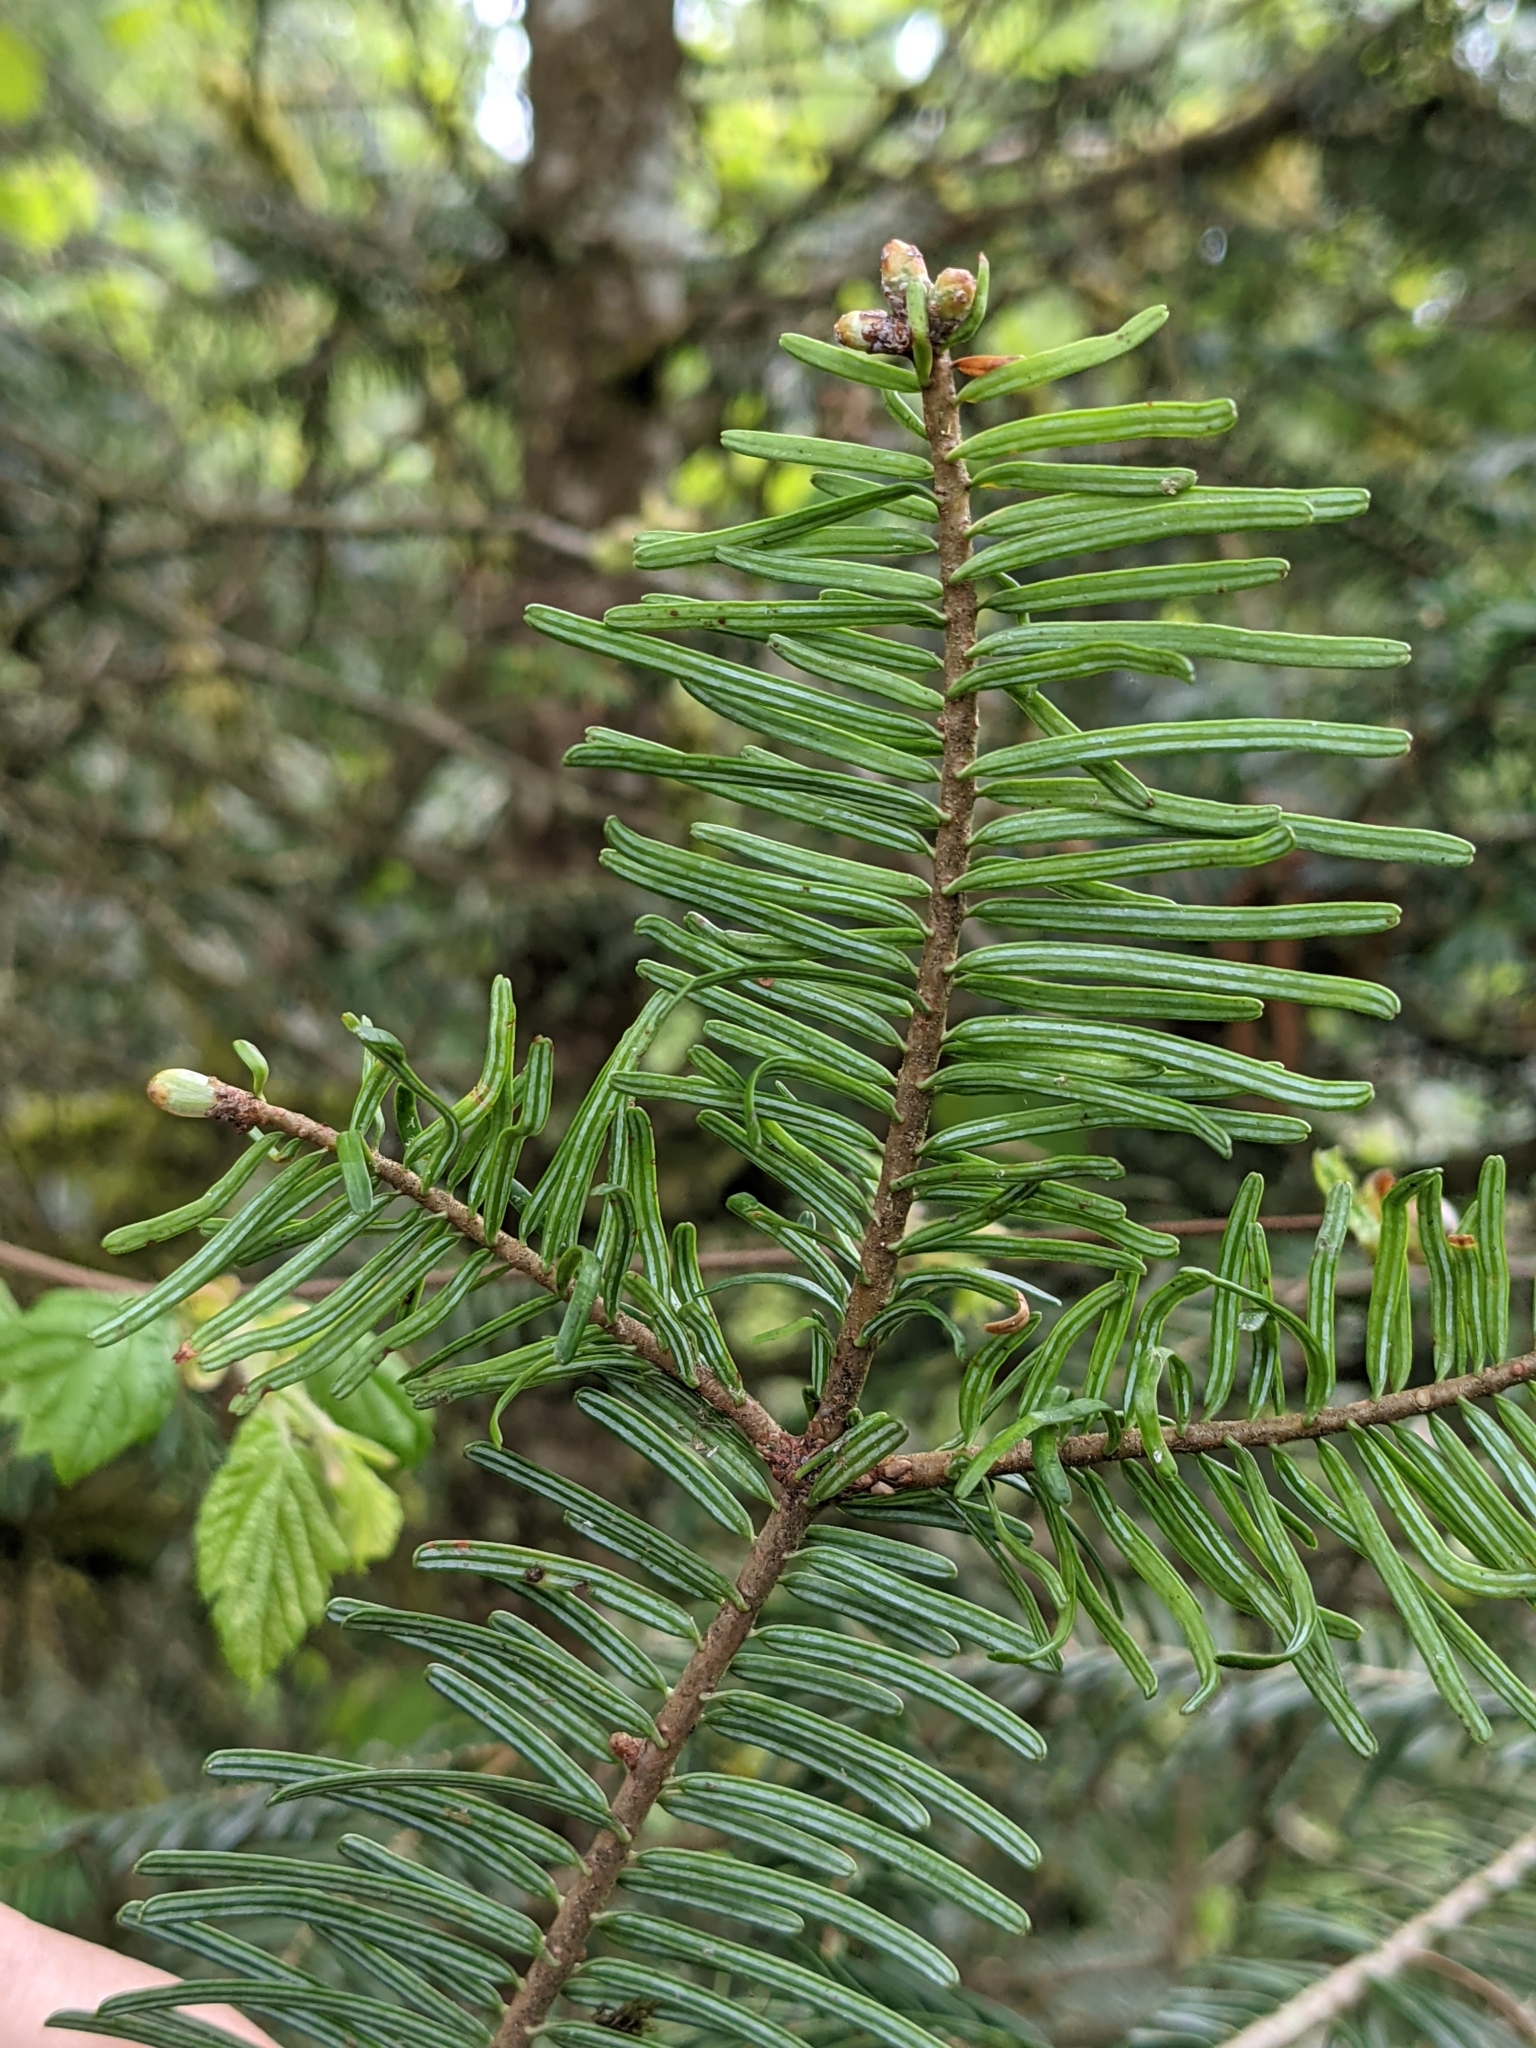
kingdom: Plantae
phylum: Tracheophyta
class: Pinopsida
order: Pinales
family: Pinaceae
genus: Abies
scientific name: Abies grandis
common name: Giant fir
